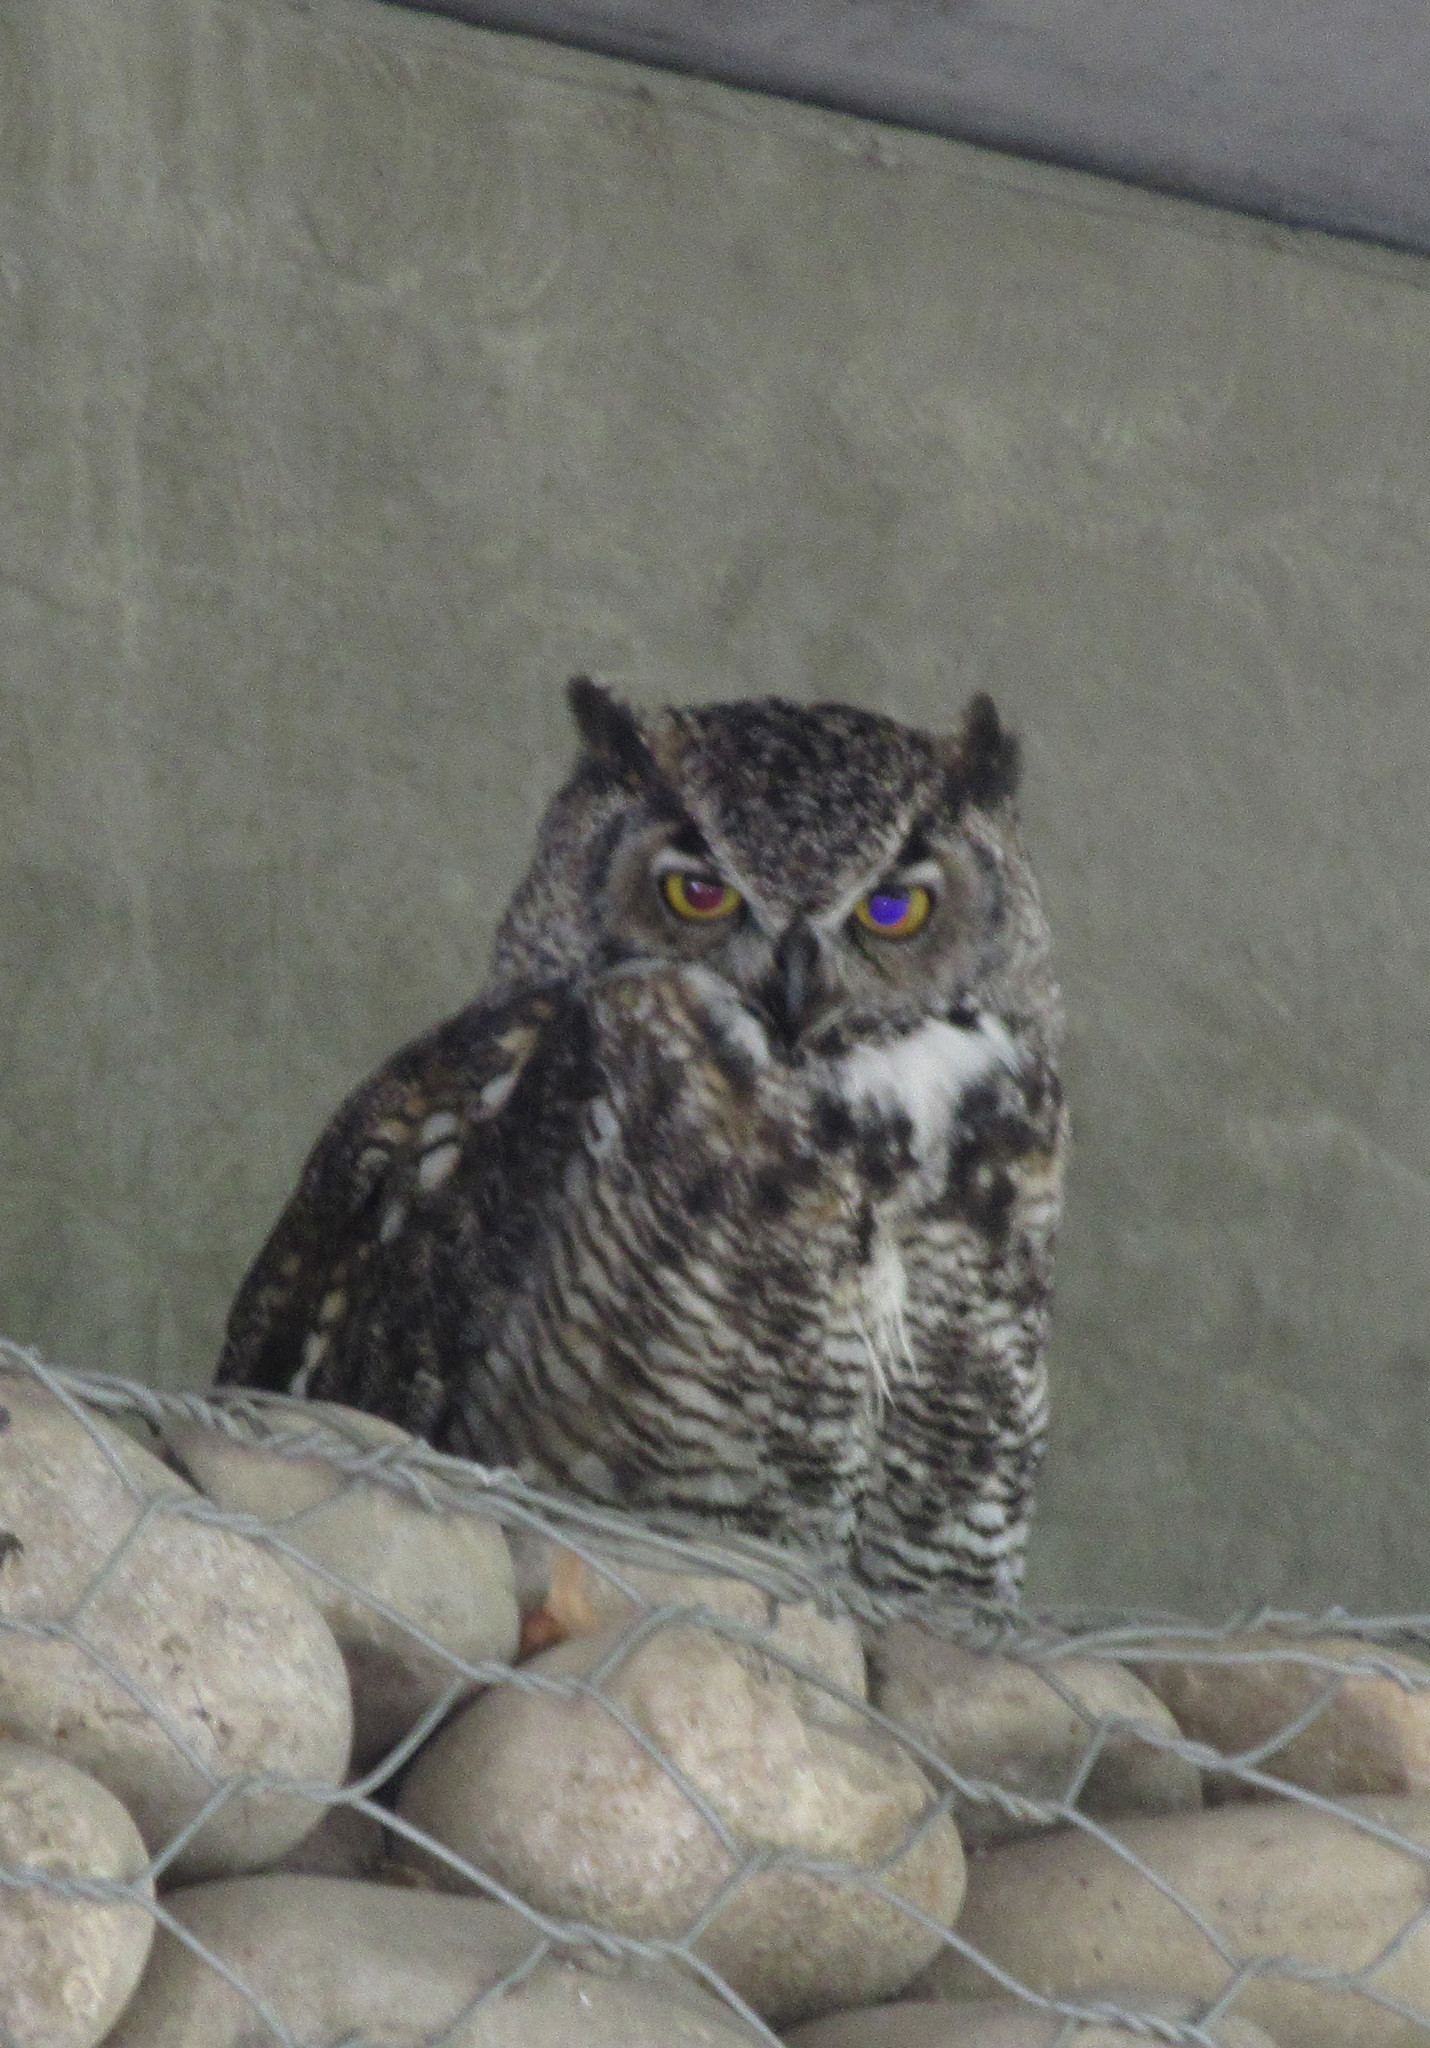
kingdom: Animalia
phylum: Chordata
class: Aves
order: Strigiformes
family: Strigidae
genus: Bubo
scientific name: Bubo virginianus
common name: Great horned owl
